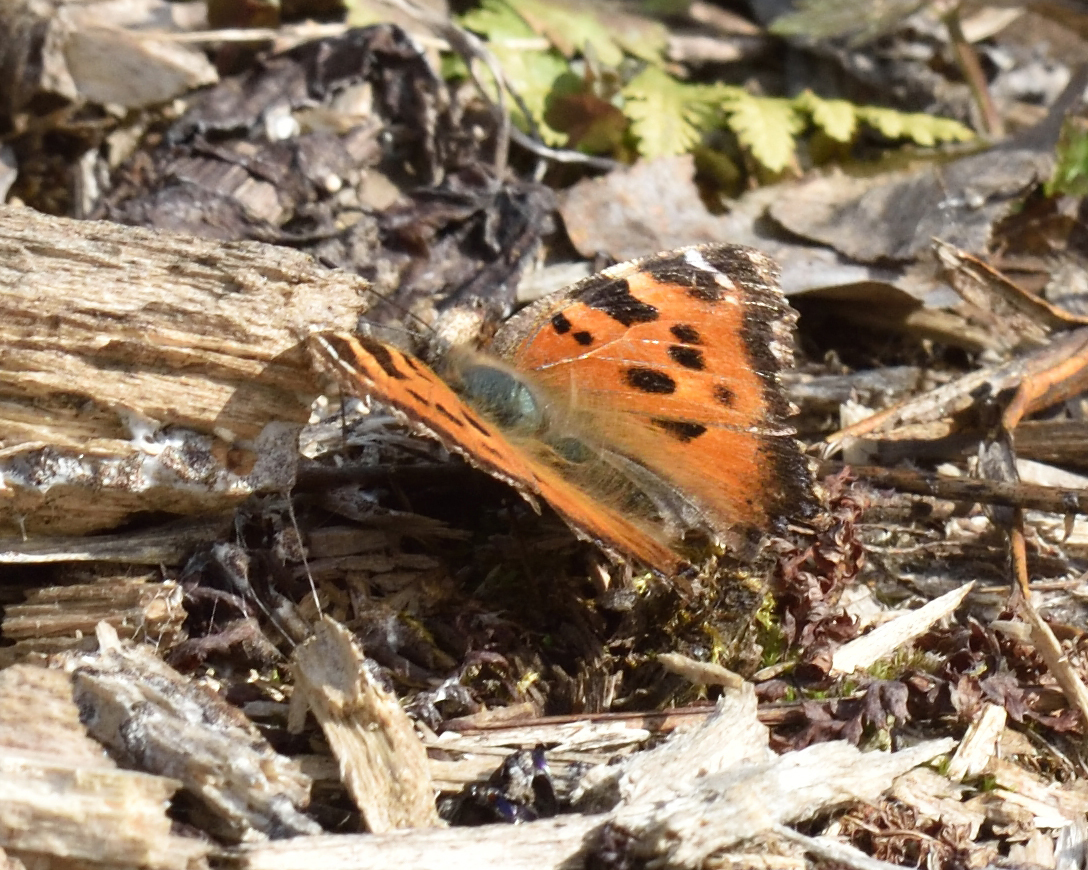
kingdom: Animalia
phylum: Arthropoda
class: Insecta
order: Lepidoptera
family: Nymphalidae
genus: Nymphalis
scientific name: Nymphalis xanthomelas
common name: Scarce tortoiseshell
